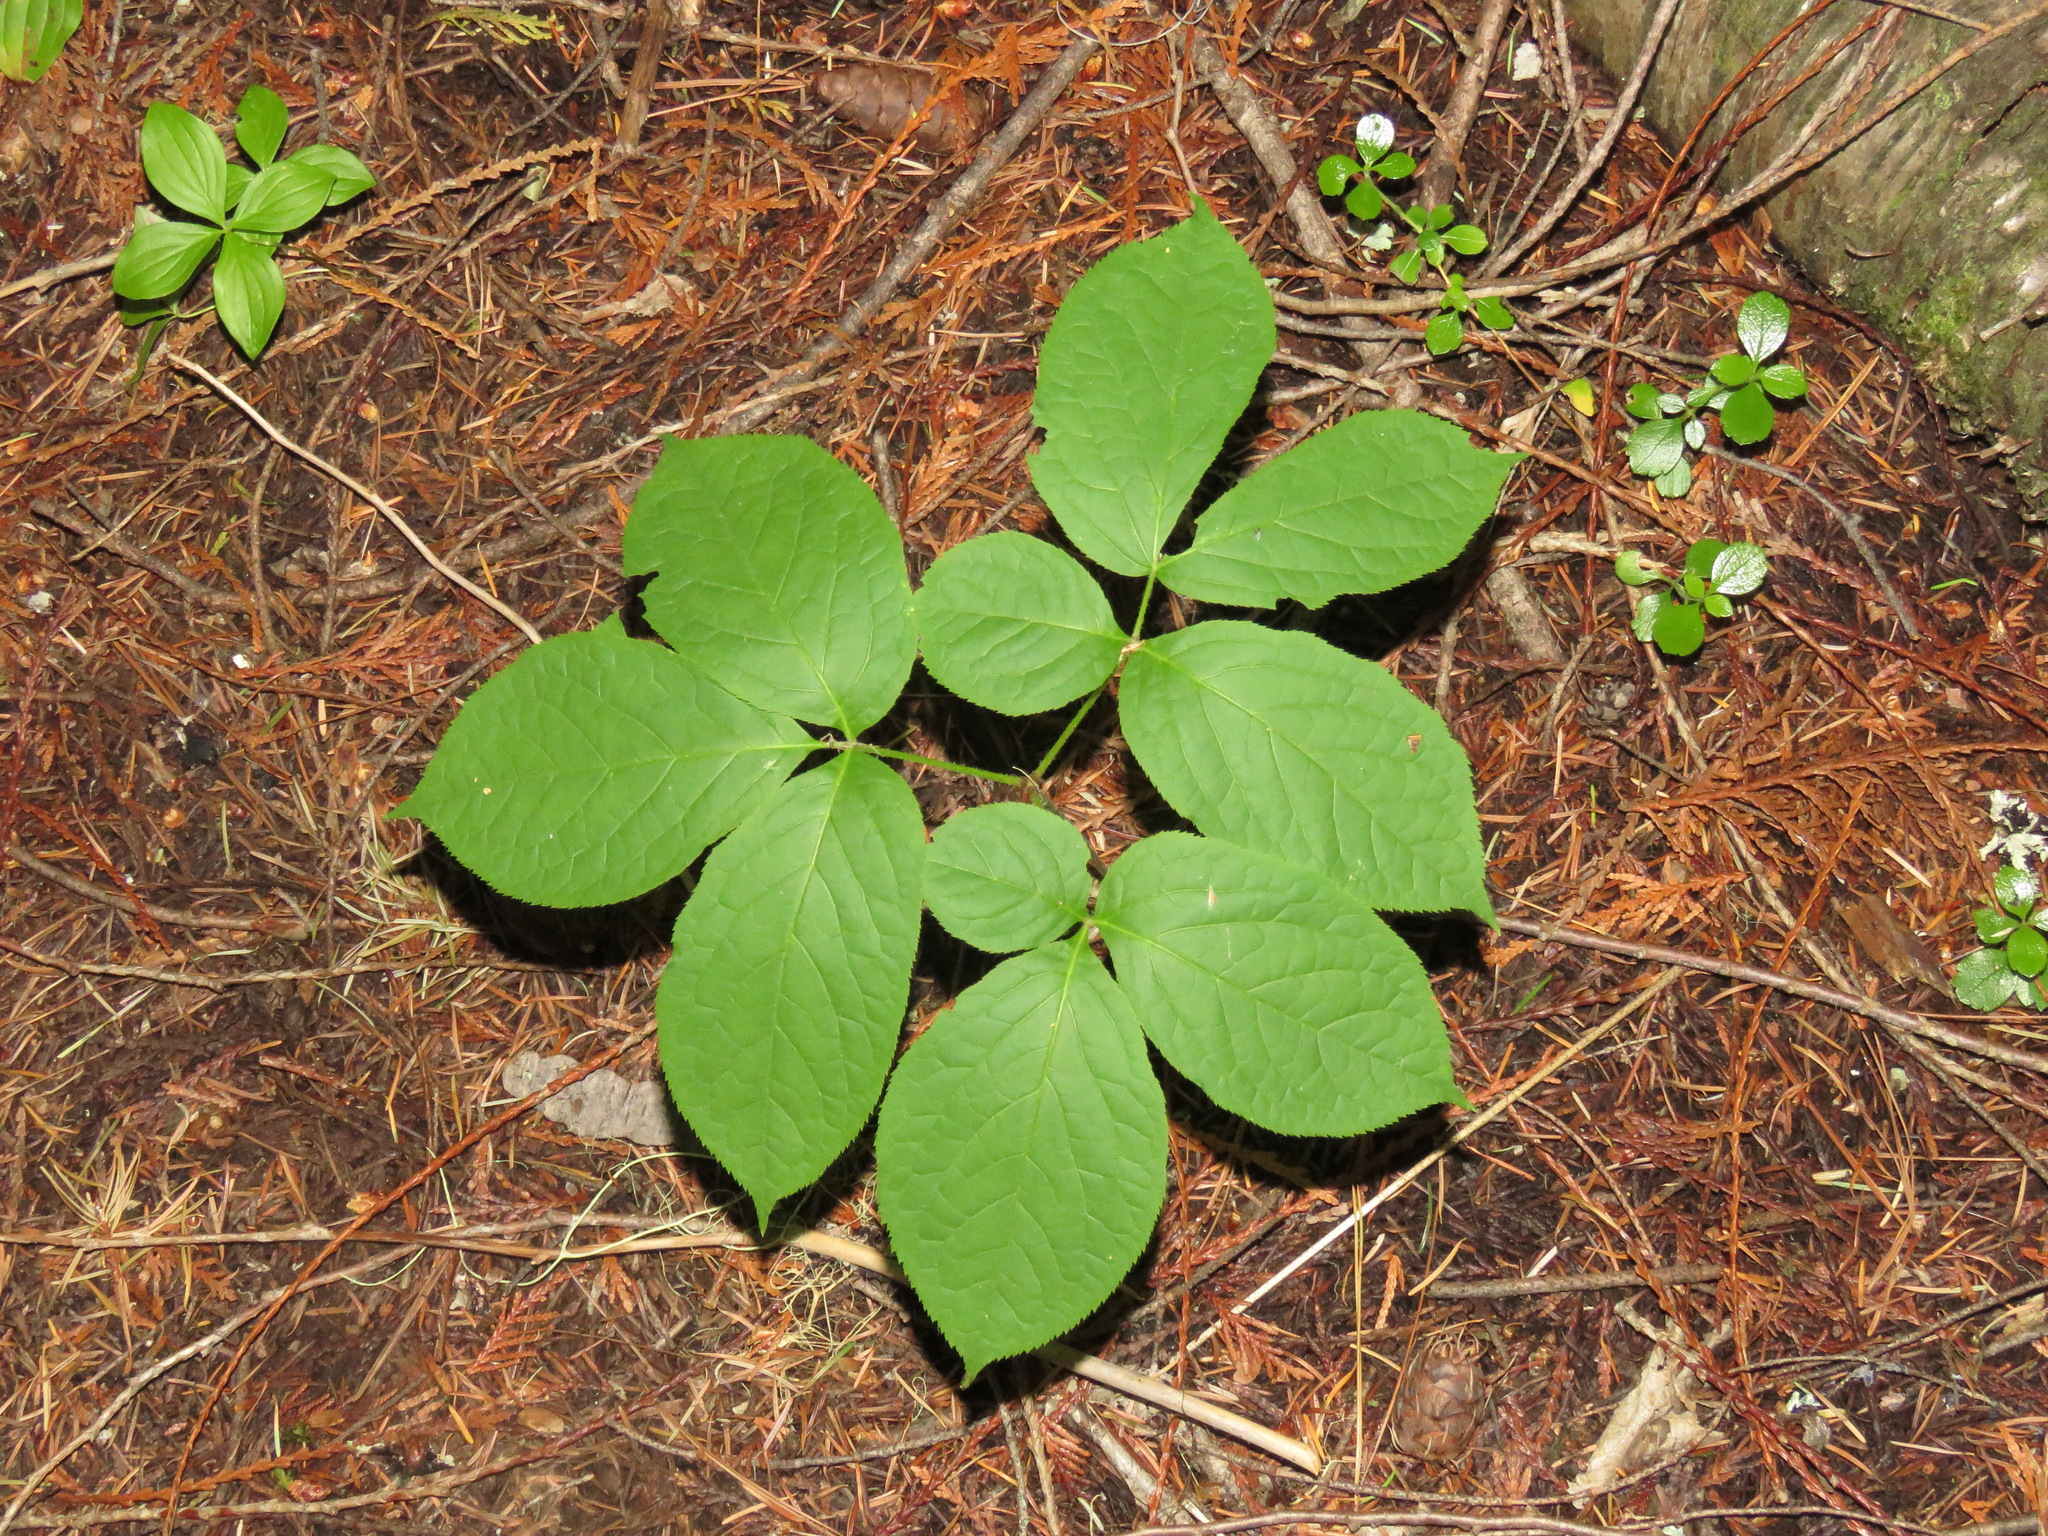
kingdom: Plantae
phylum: Tracheophyta
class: Magnoliopsida
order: Apiales
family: Araliaceae
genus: Aralia
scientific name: Aralia nudicaulis
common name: Wild sarsaparilla
